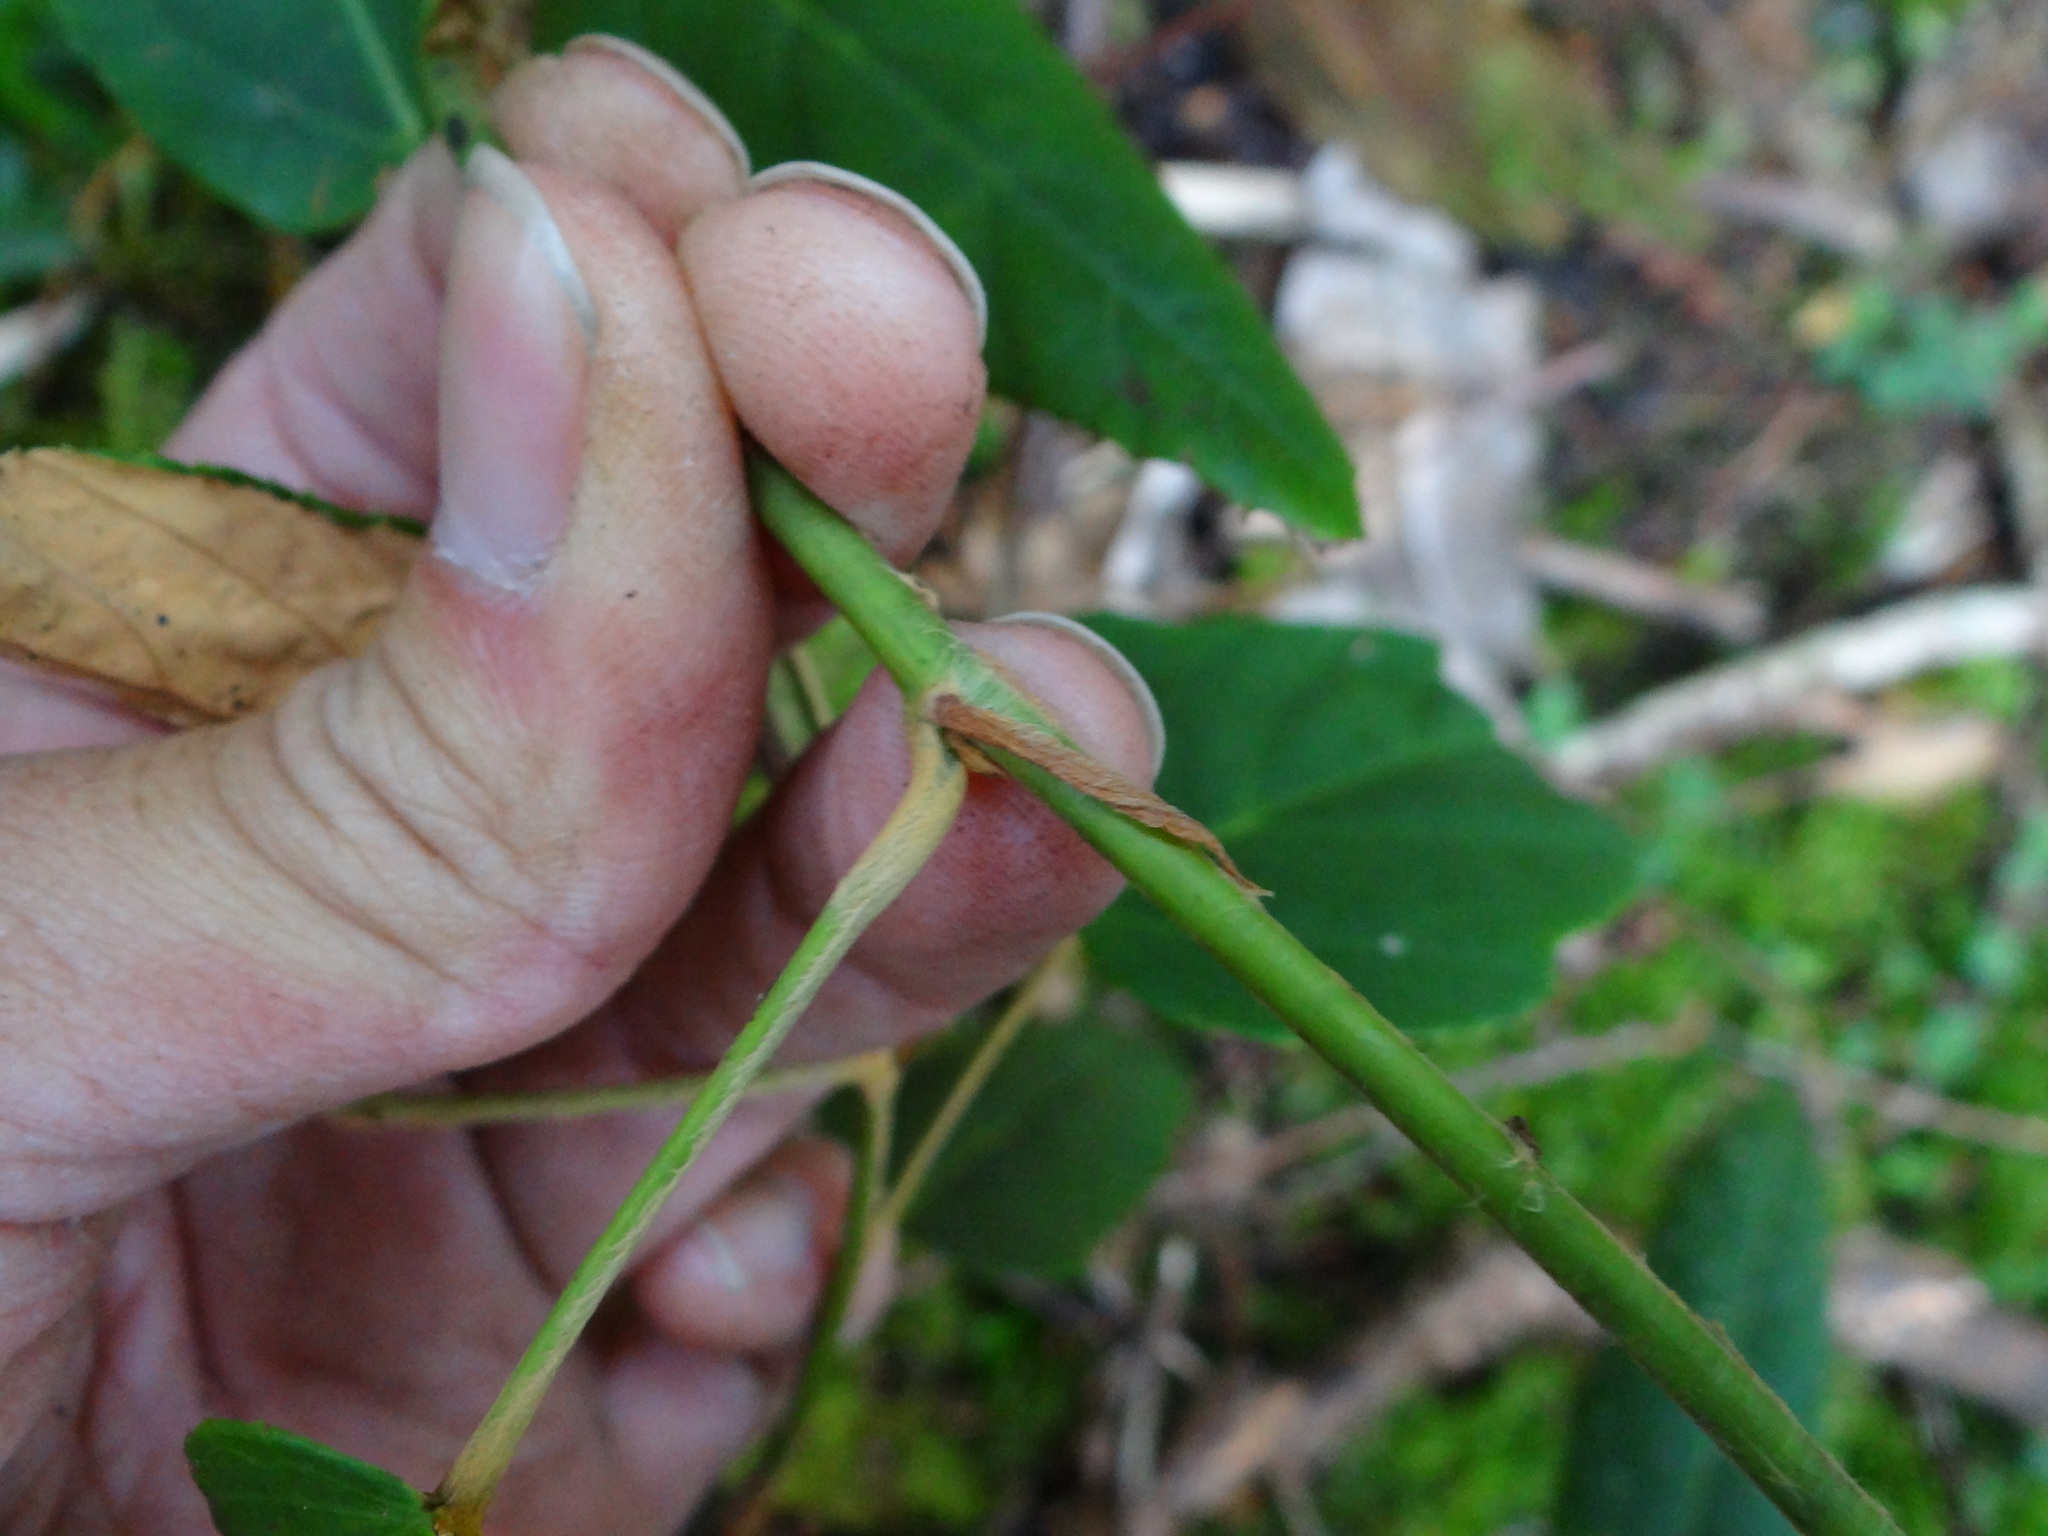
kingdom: Plantae
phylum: Tracheophyta
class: Magnoliopsida
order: Rosales
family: Rosaceae
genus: Rubus
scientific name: Rubus liui
